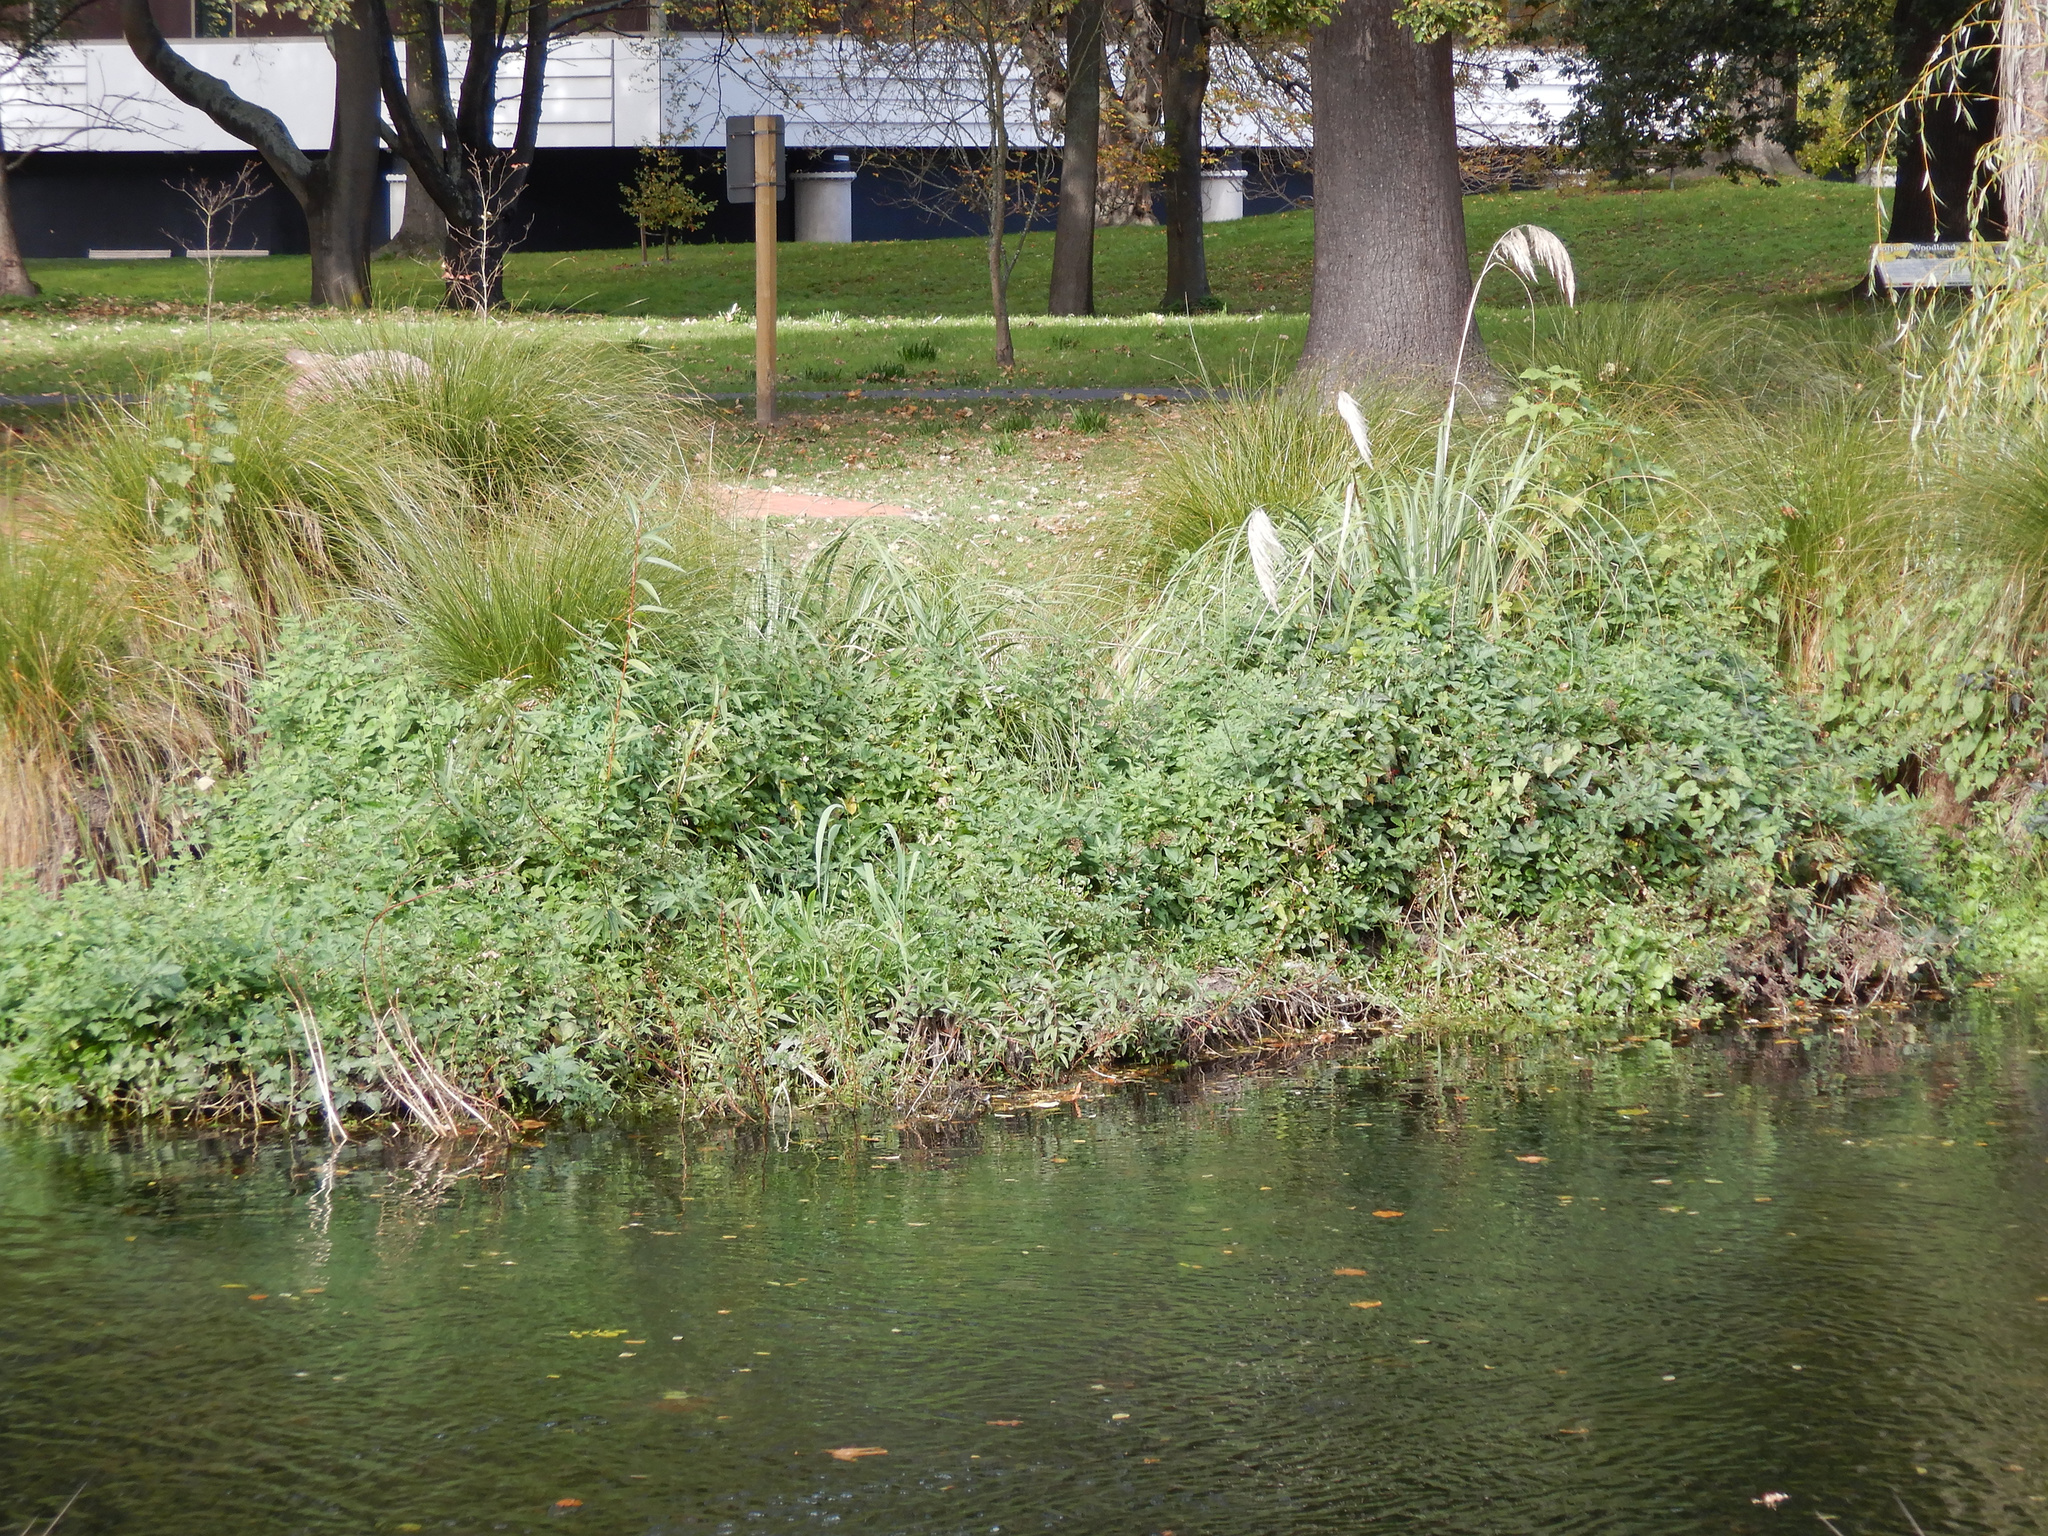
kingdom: Plantae
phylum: Tracheophyta
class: Magnoliopsida
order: Solanales
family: Solanaceae
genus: Solanum
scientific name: Solanum dulcamara
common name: Climbing nightshade
